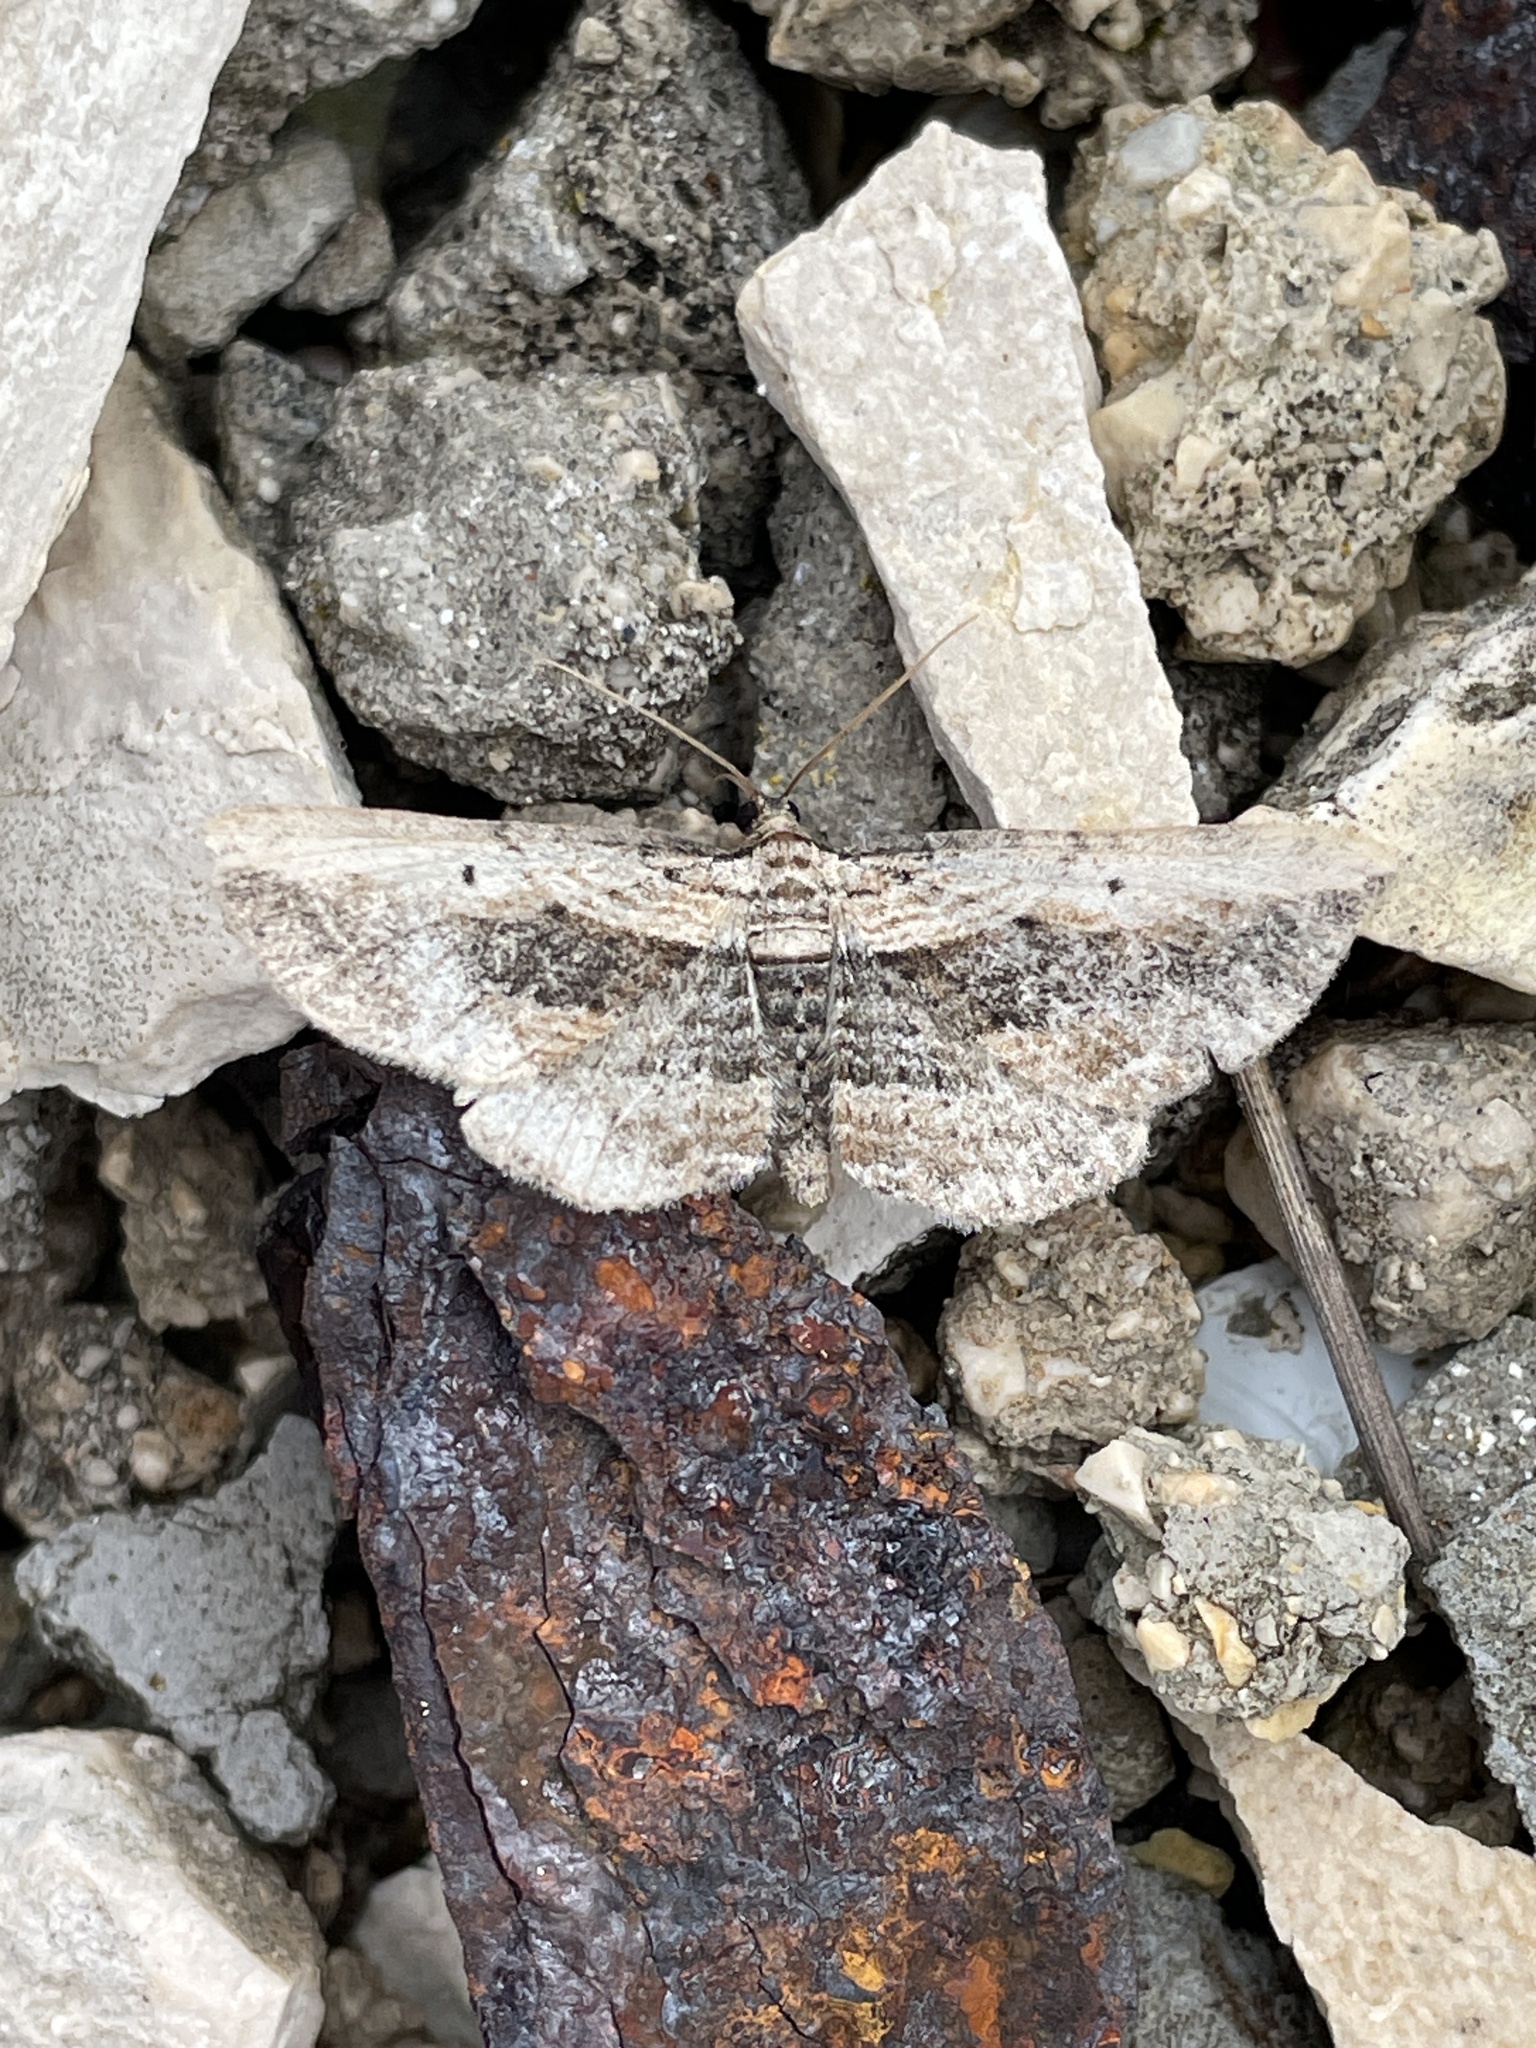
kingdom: Animalia
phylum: Arthropoda
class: Insecta
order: Lepidoptera
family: Geometridae
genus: Horisme
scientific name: Horisme vitalbata
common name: Small waved umber
